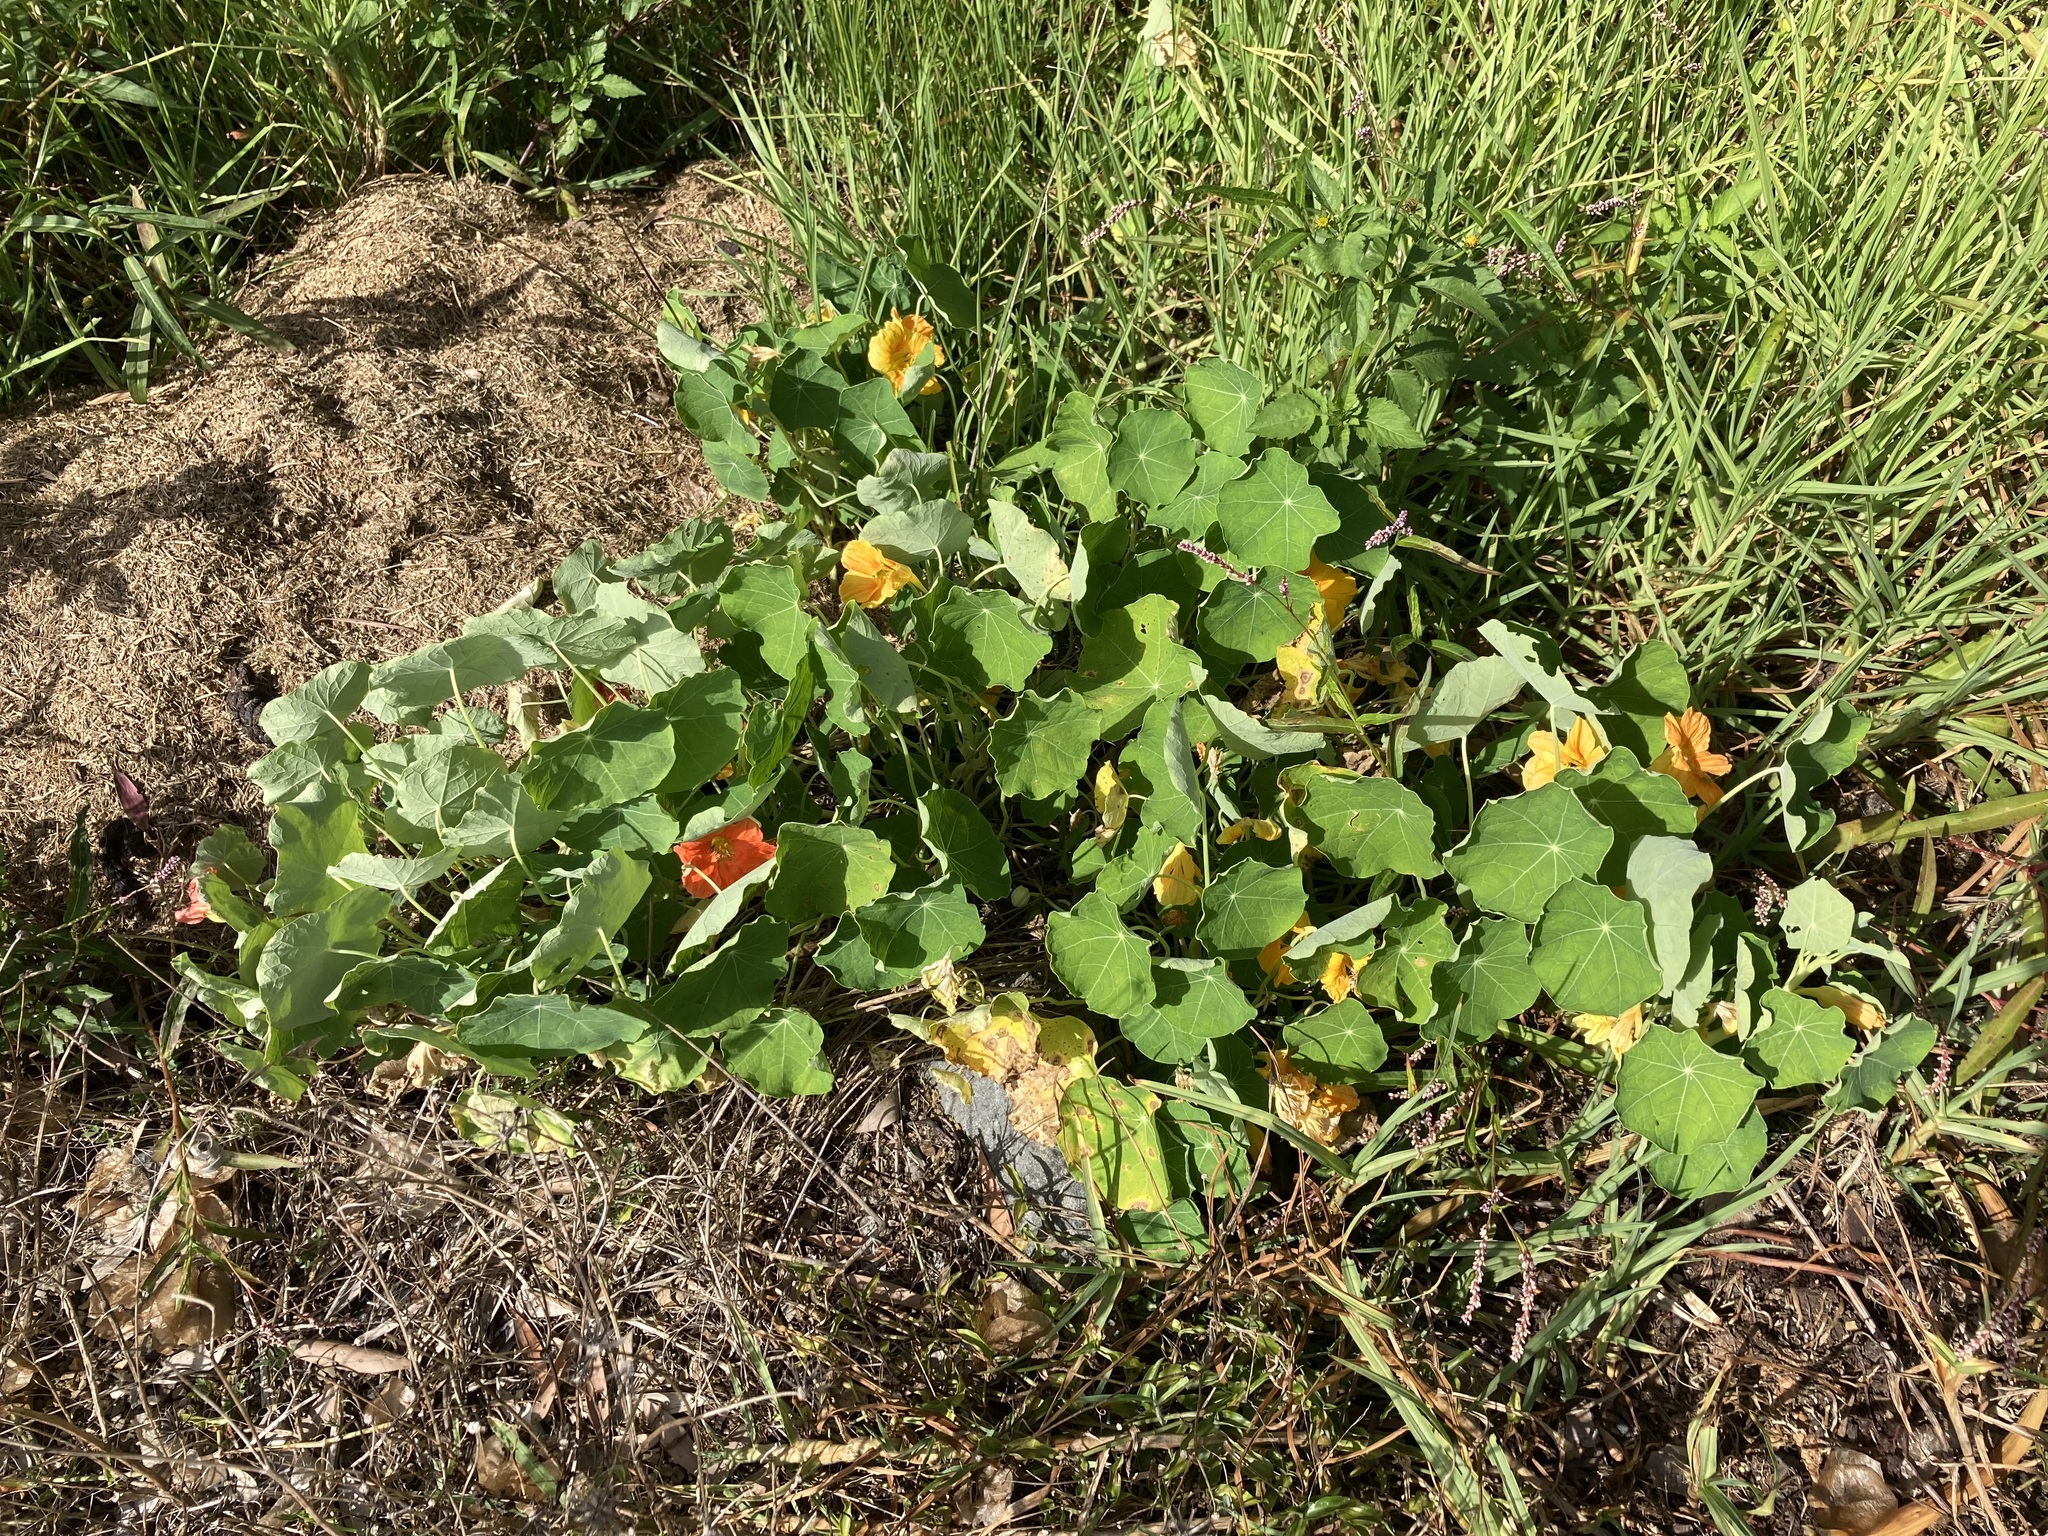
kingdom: Plantae
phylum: Tracheophyta
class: Magnoliopsida
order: Brassicales
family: Tropaeolaceae
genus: Tropaeolum
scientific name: Tropaeolum majus
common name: Nasturtium
